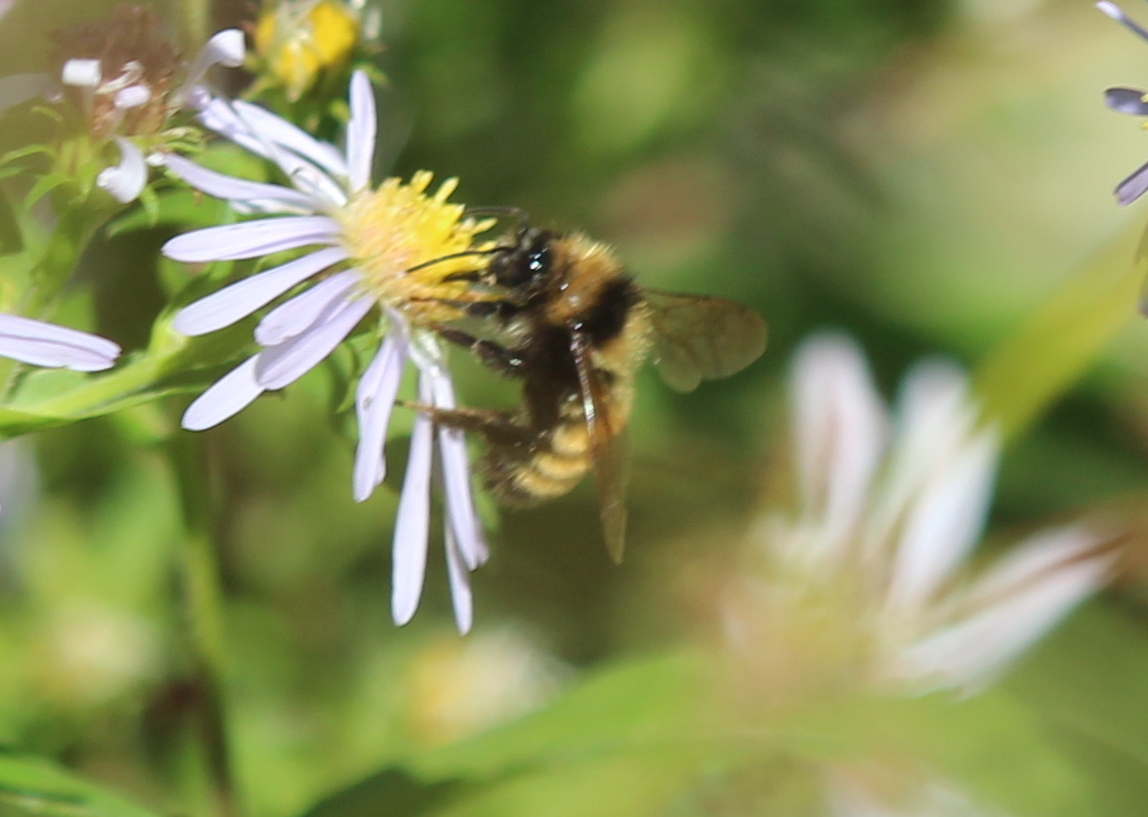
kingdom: Animalia
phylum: Arthropoda
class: Insecta
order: Hymenoptera
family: Apidae
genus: Bombus
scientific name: Bombus borealis
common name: Northern amber bumble bee
